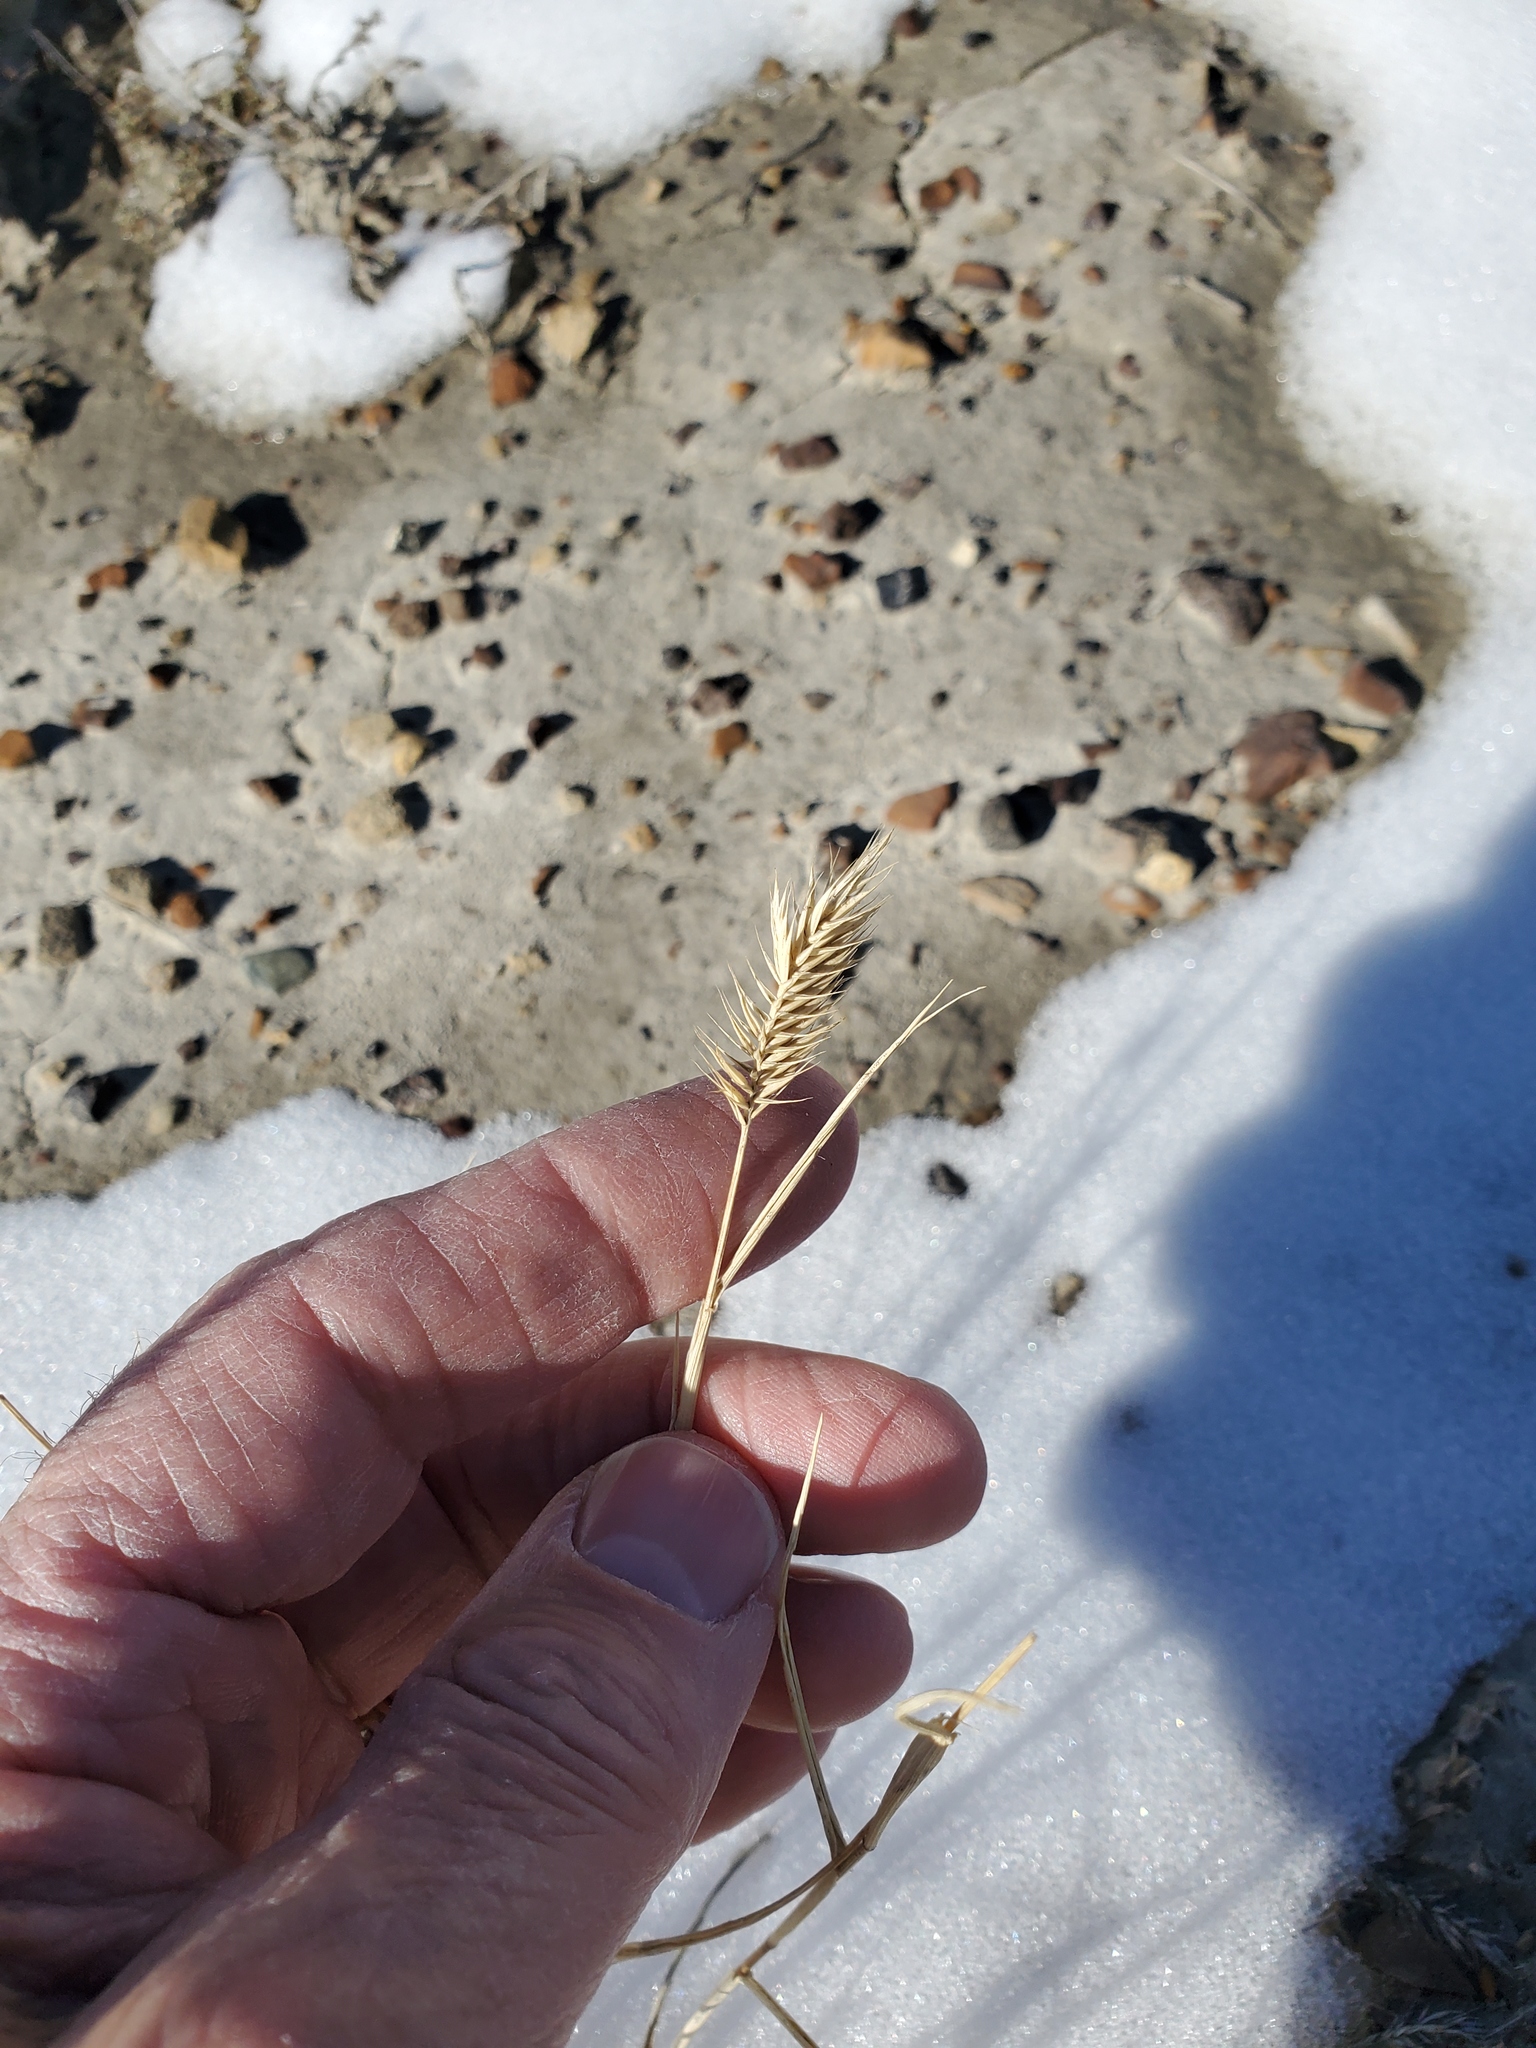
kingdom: Plantae
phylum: Tracheophyta
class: Liliopsida
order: Poales
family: Poaceae
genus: Agropyron
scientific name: Agropyron cristatum
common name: Crested wheatgrass
